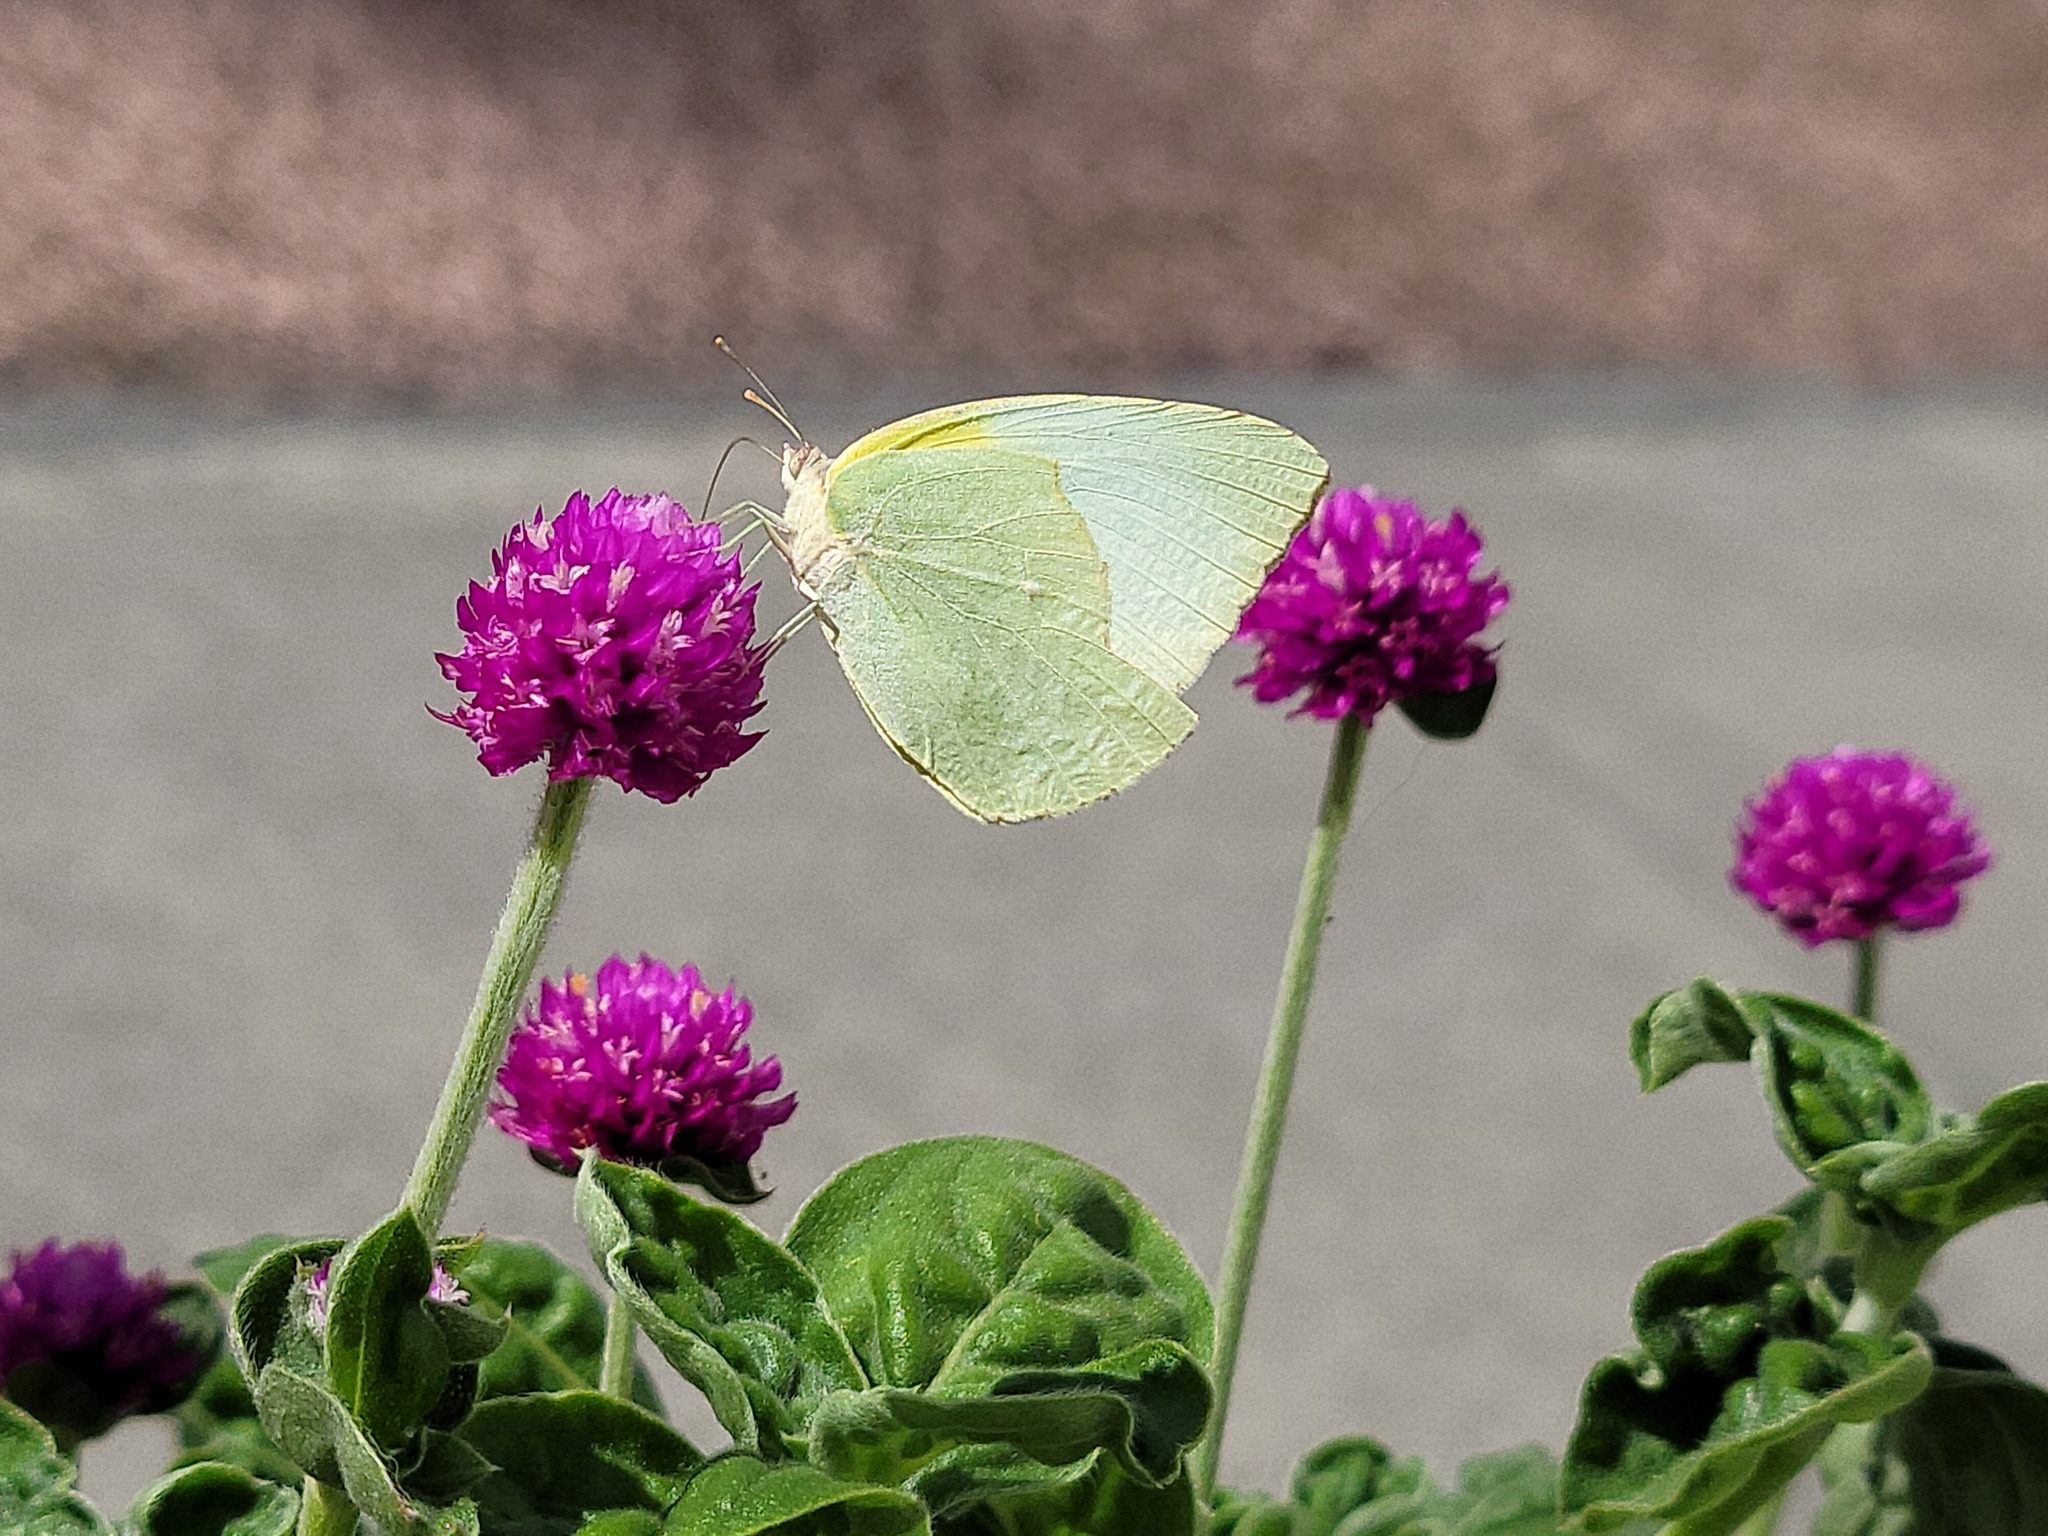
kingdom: Animalia
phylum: Arthropoda
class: Insecta
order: Lepidoptera
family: Pieridae
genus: Kricogonia
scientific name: Kricogonia lyside
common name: Guayacan sulphur,
